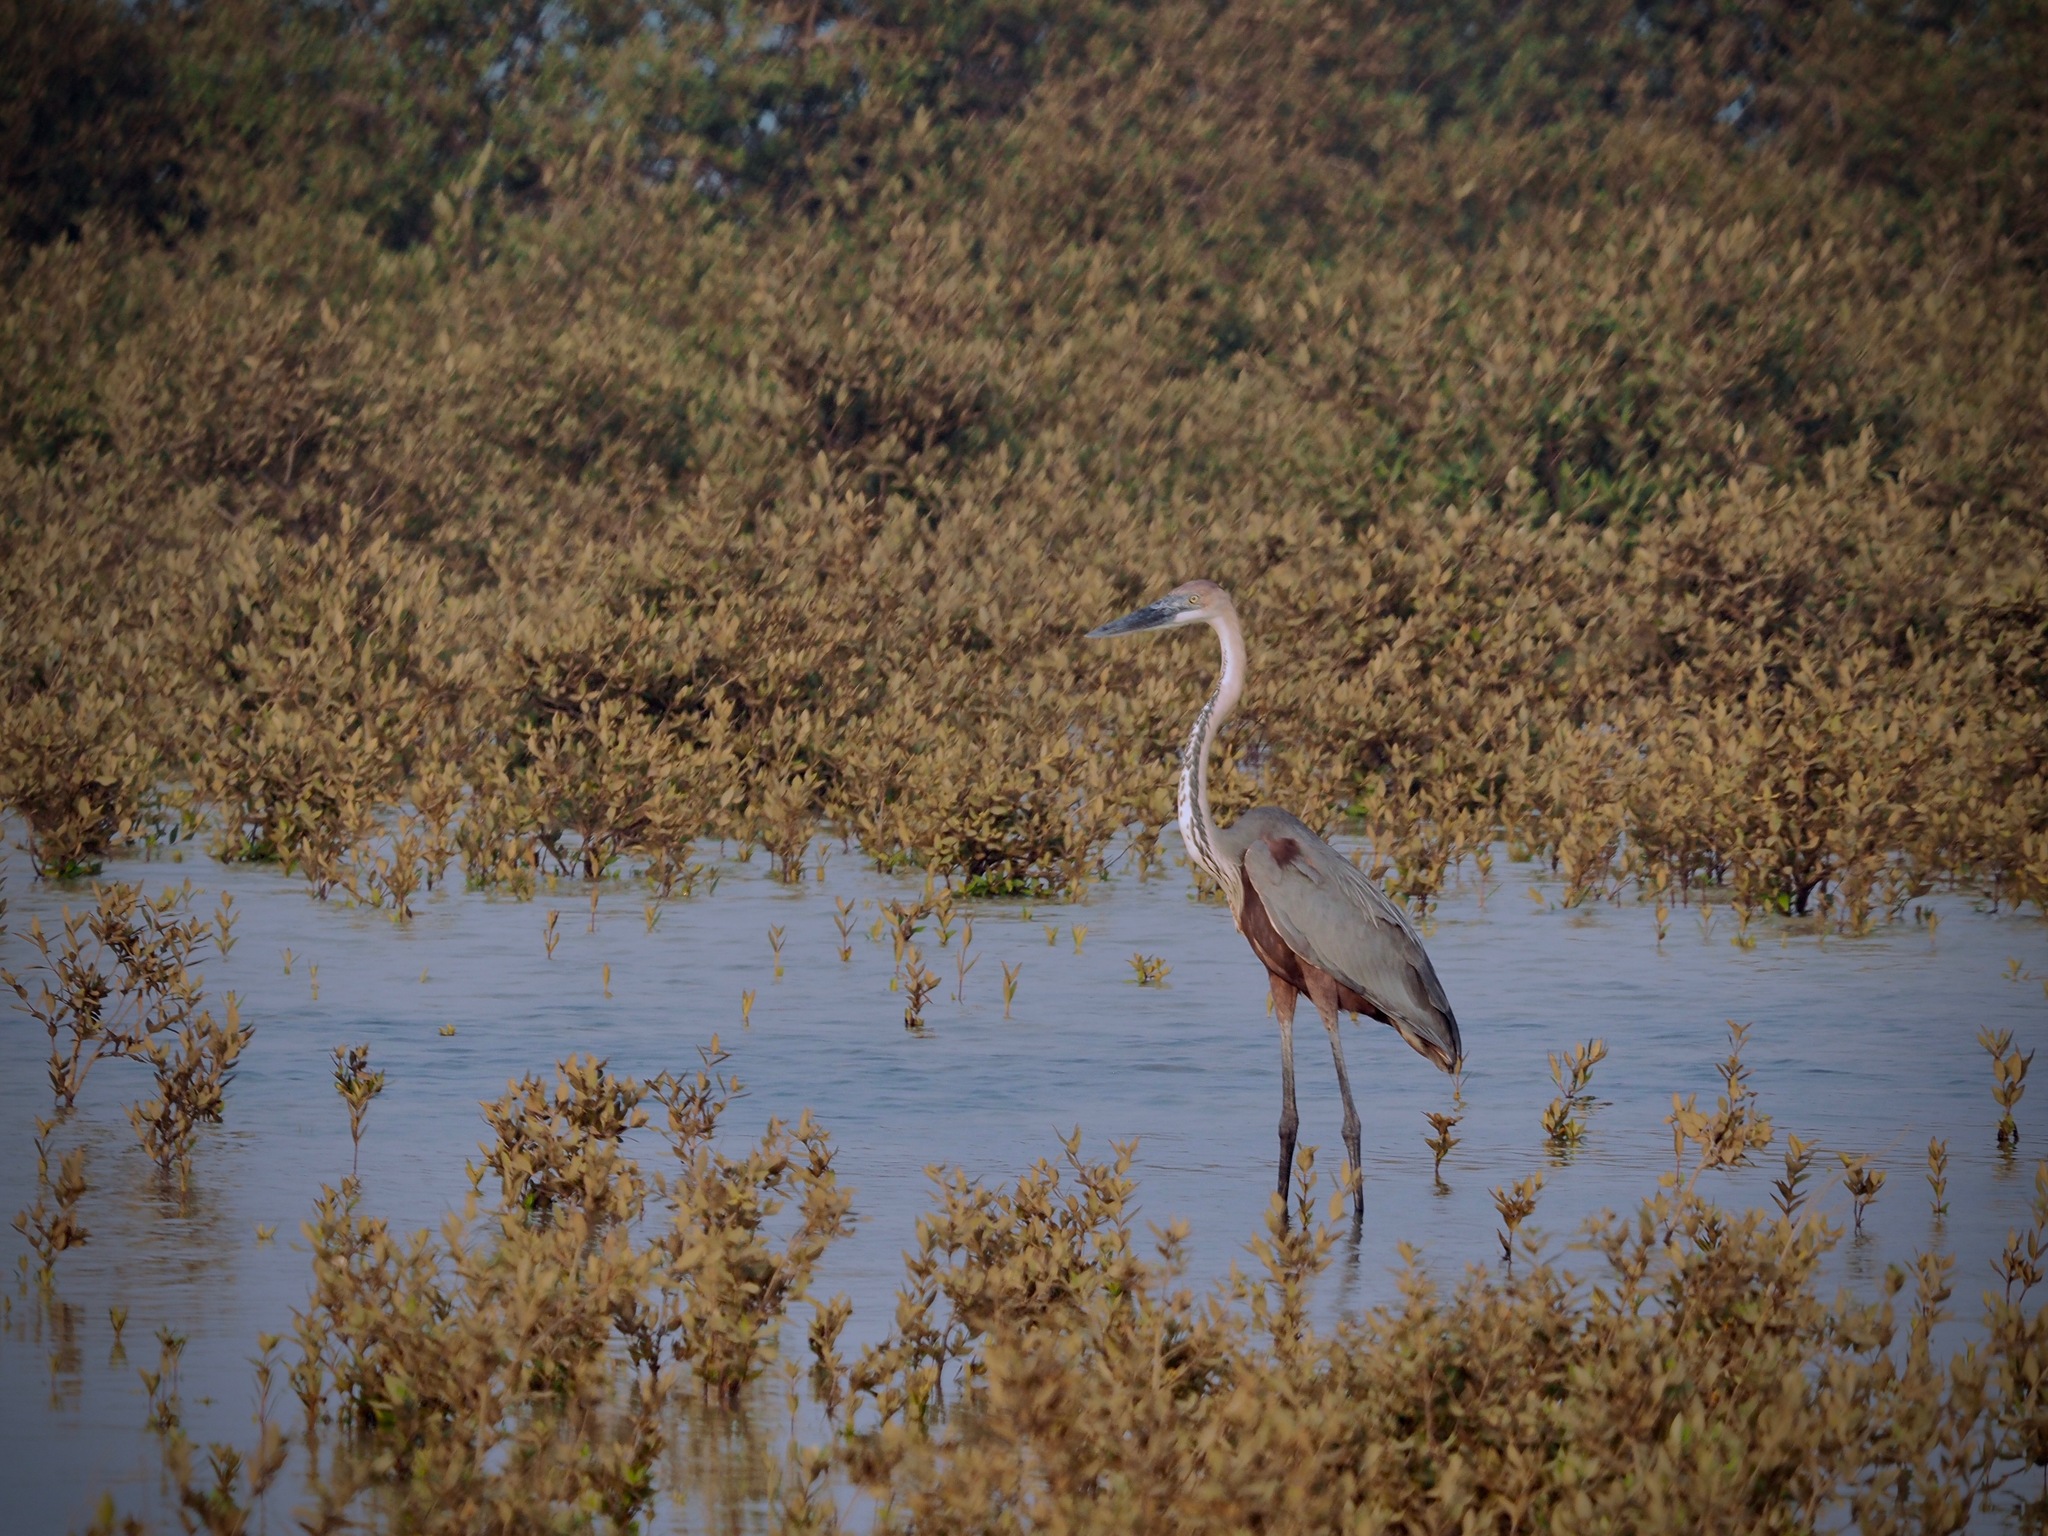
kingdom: Animalia
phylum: Chordata
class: Aves
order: Pelecaniformes
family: Ardeidae
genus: Ardea
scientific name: Ardea goliath
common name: Goliath heron
